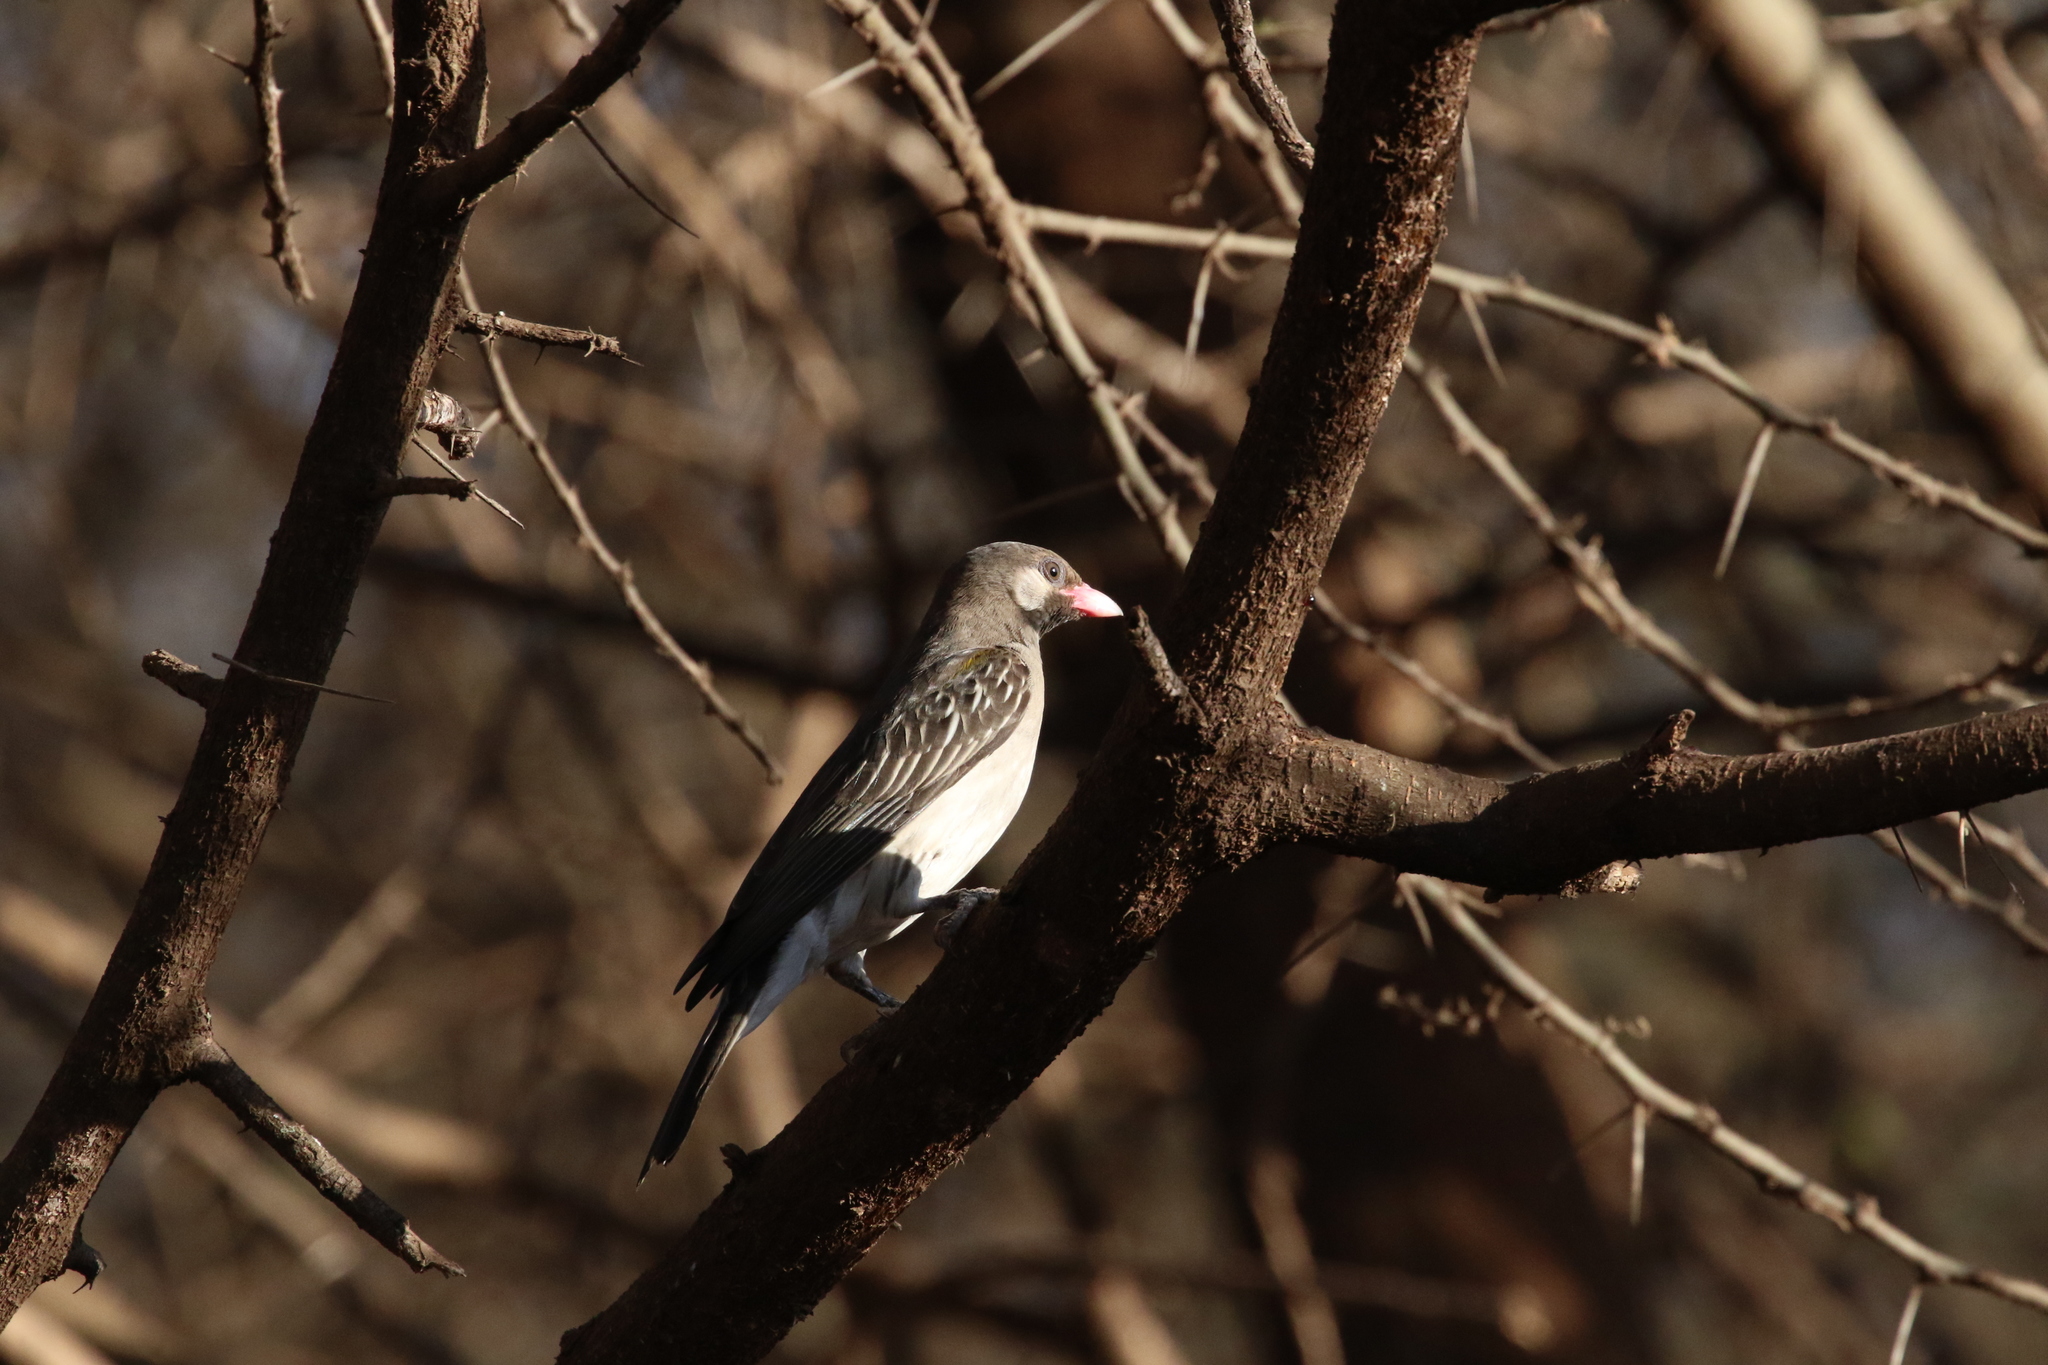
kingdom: Animalia
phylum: Chordata
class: Aves
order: Piciformes
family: Indicatoridae
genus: Indicator
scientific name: Indicator indicator
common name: Greater honeyguide
